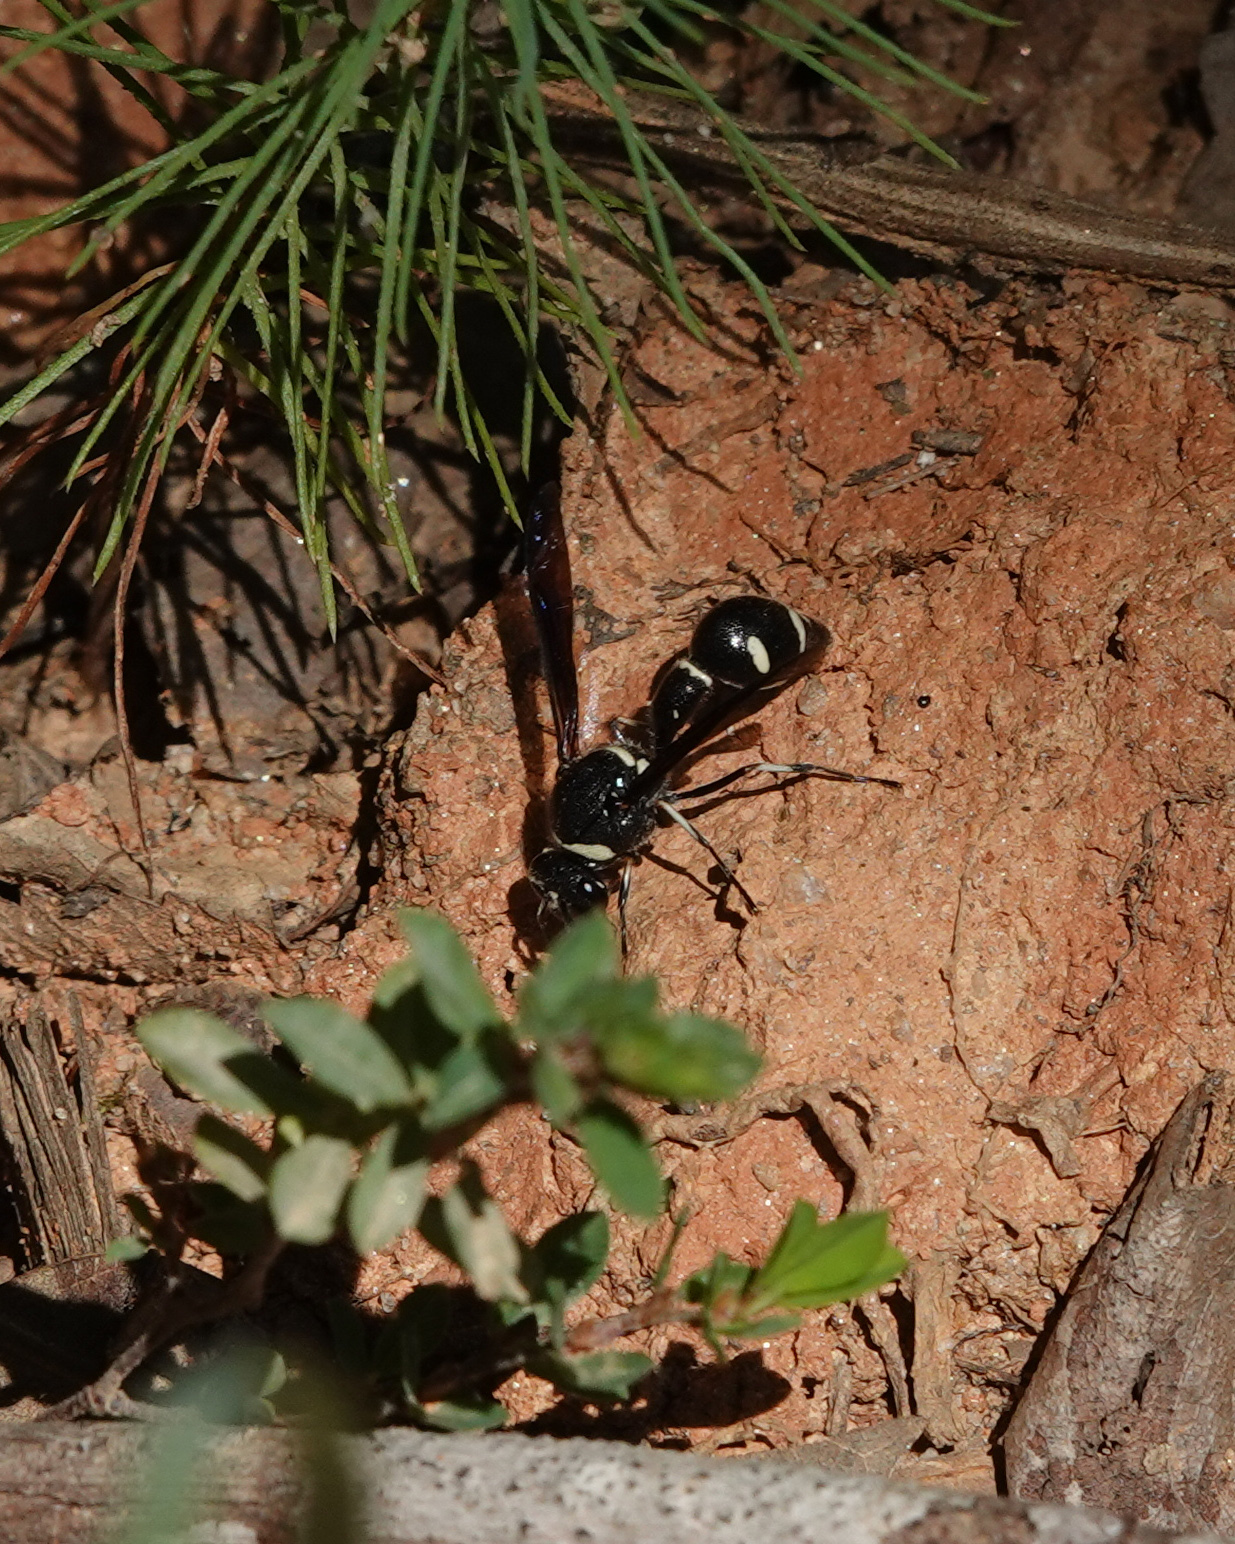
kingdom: Animalia
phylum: Arthropoda
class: Insecta
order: Hymenoptera
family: Vespidae
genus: Eumenes
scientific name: Eumenes fraternus
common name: Fraternal potter wasp
